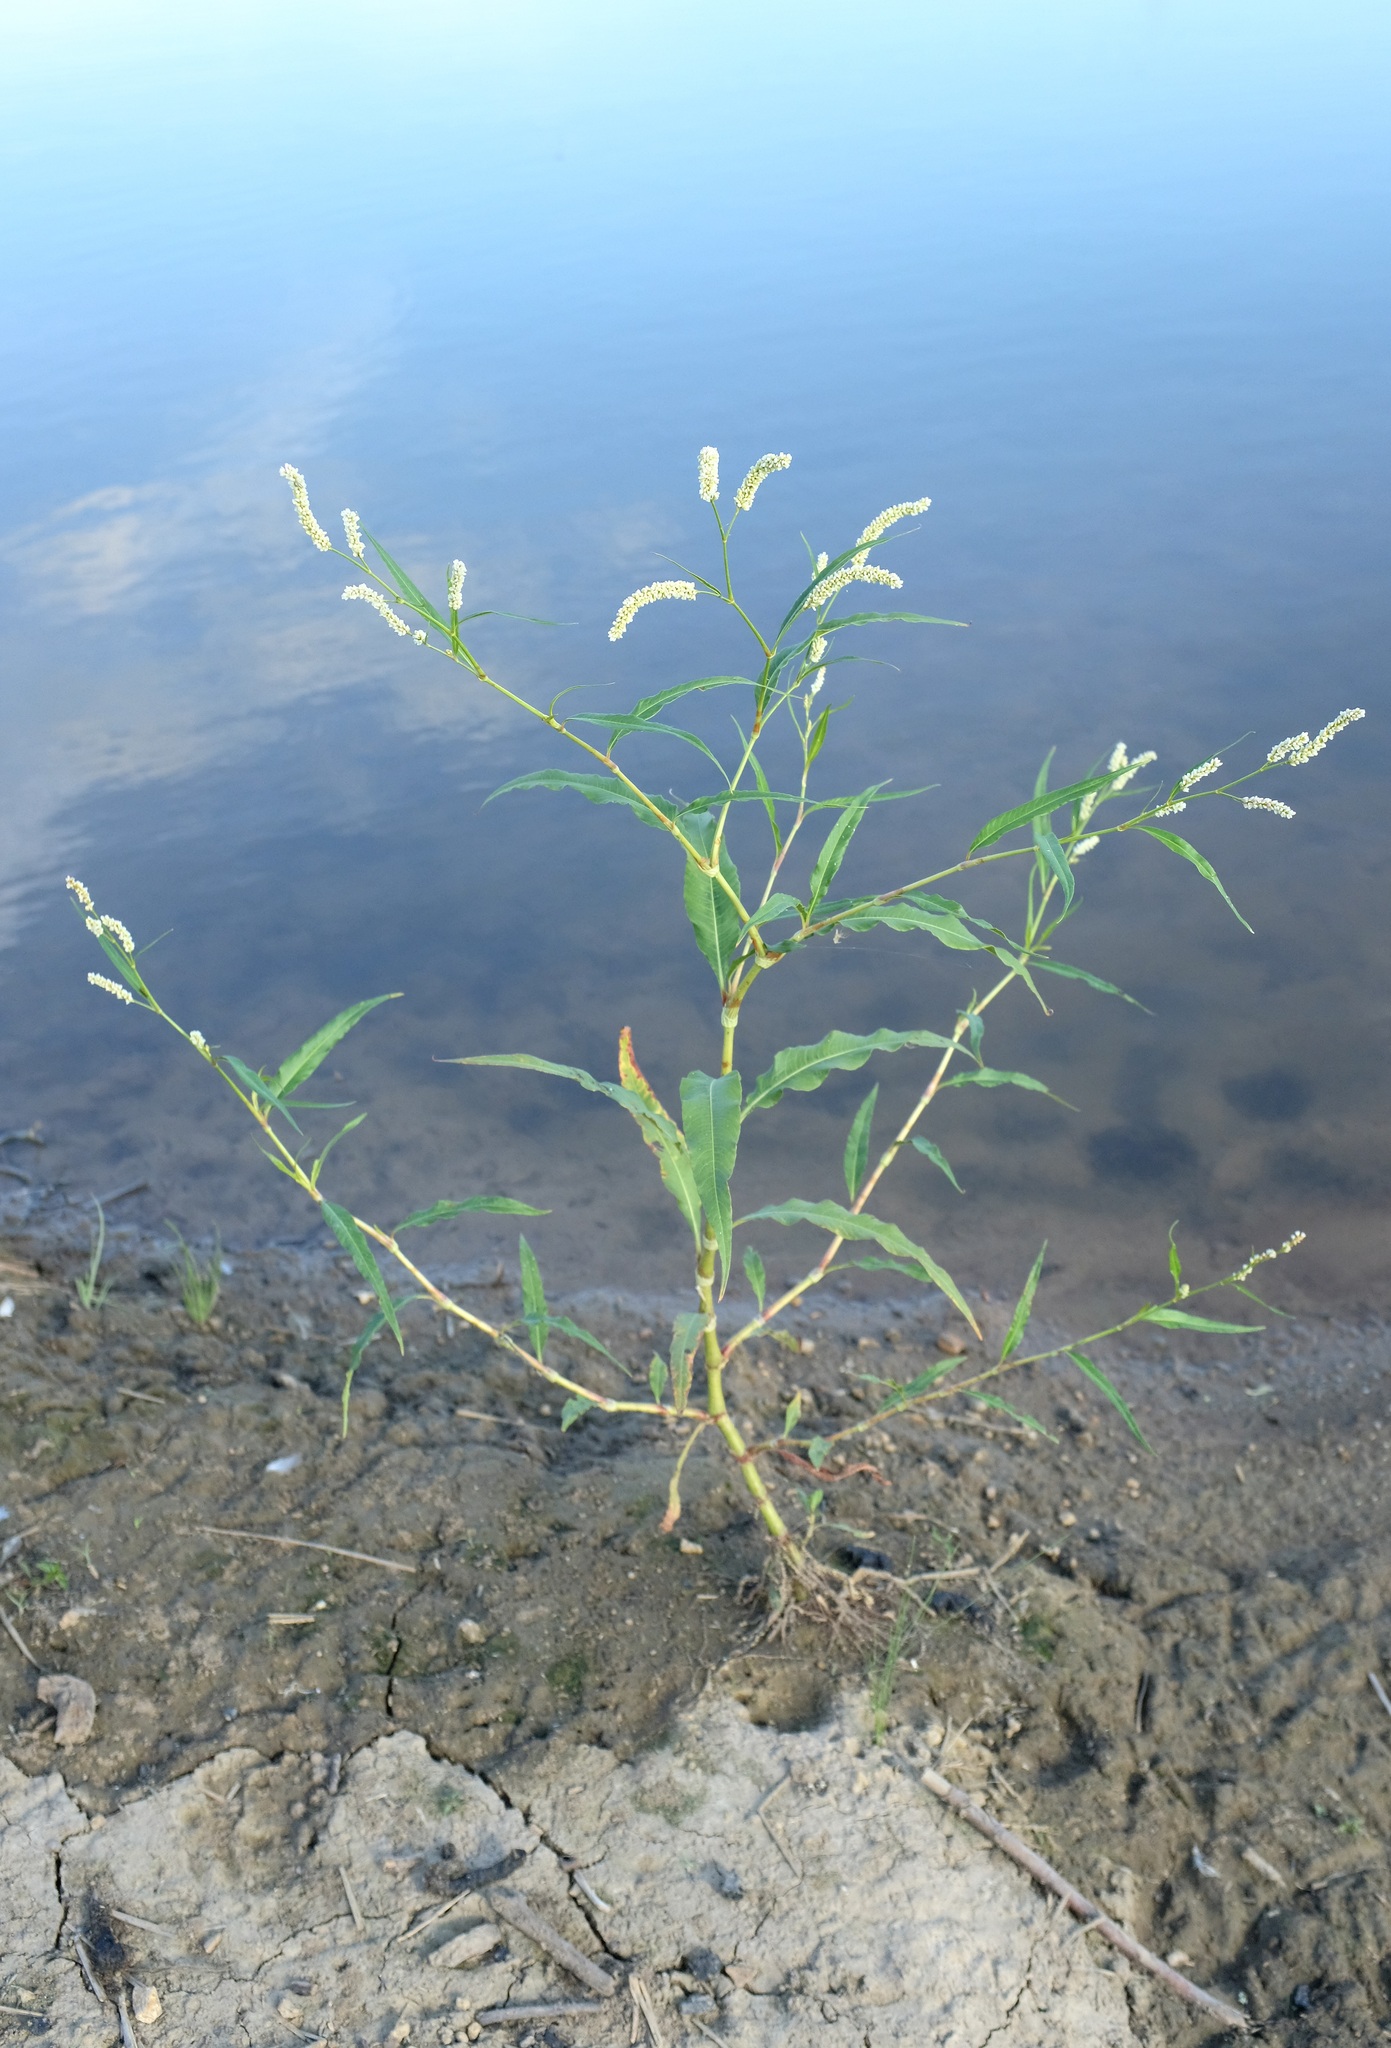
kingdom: Plantae
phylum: Tracheophyta
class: Magnoliopsida
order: Caryophyllales
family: Polygonaceae
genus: Persicaria
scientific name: Persicaria lapathifolia
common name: Curlytop knotweed
